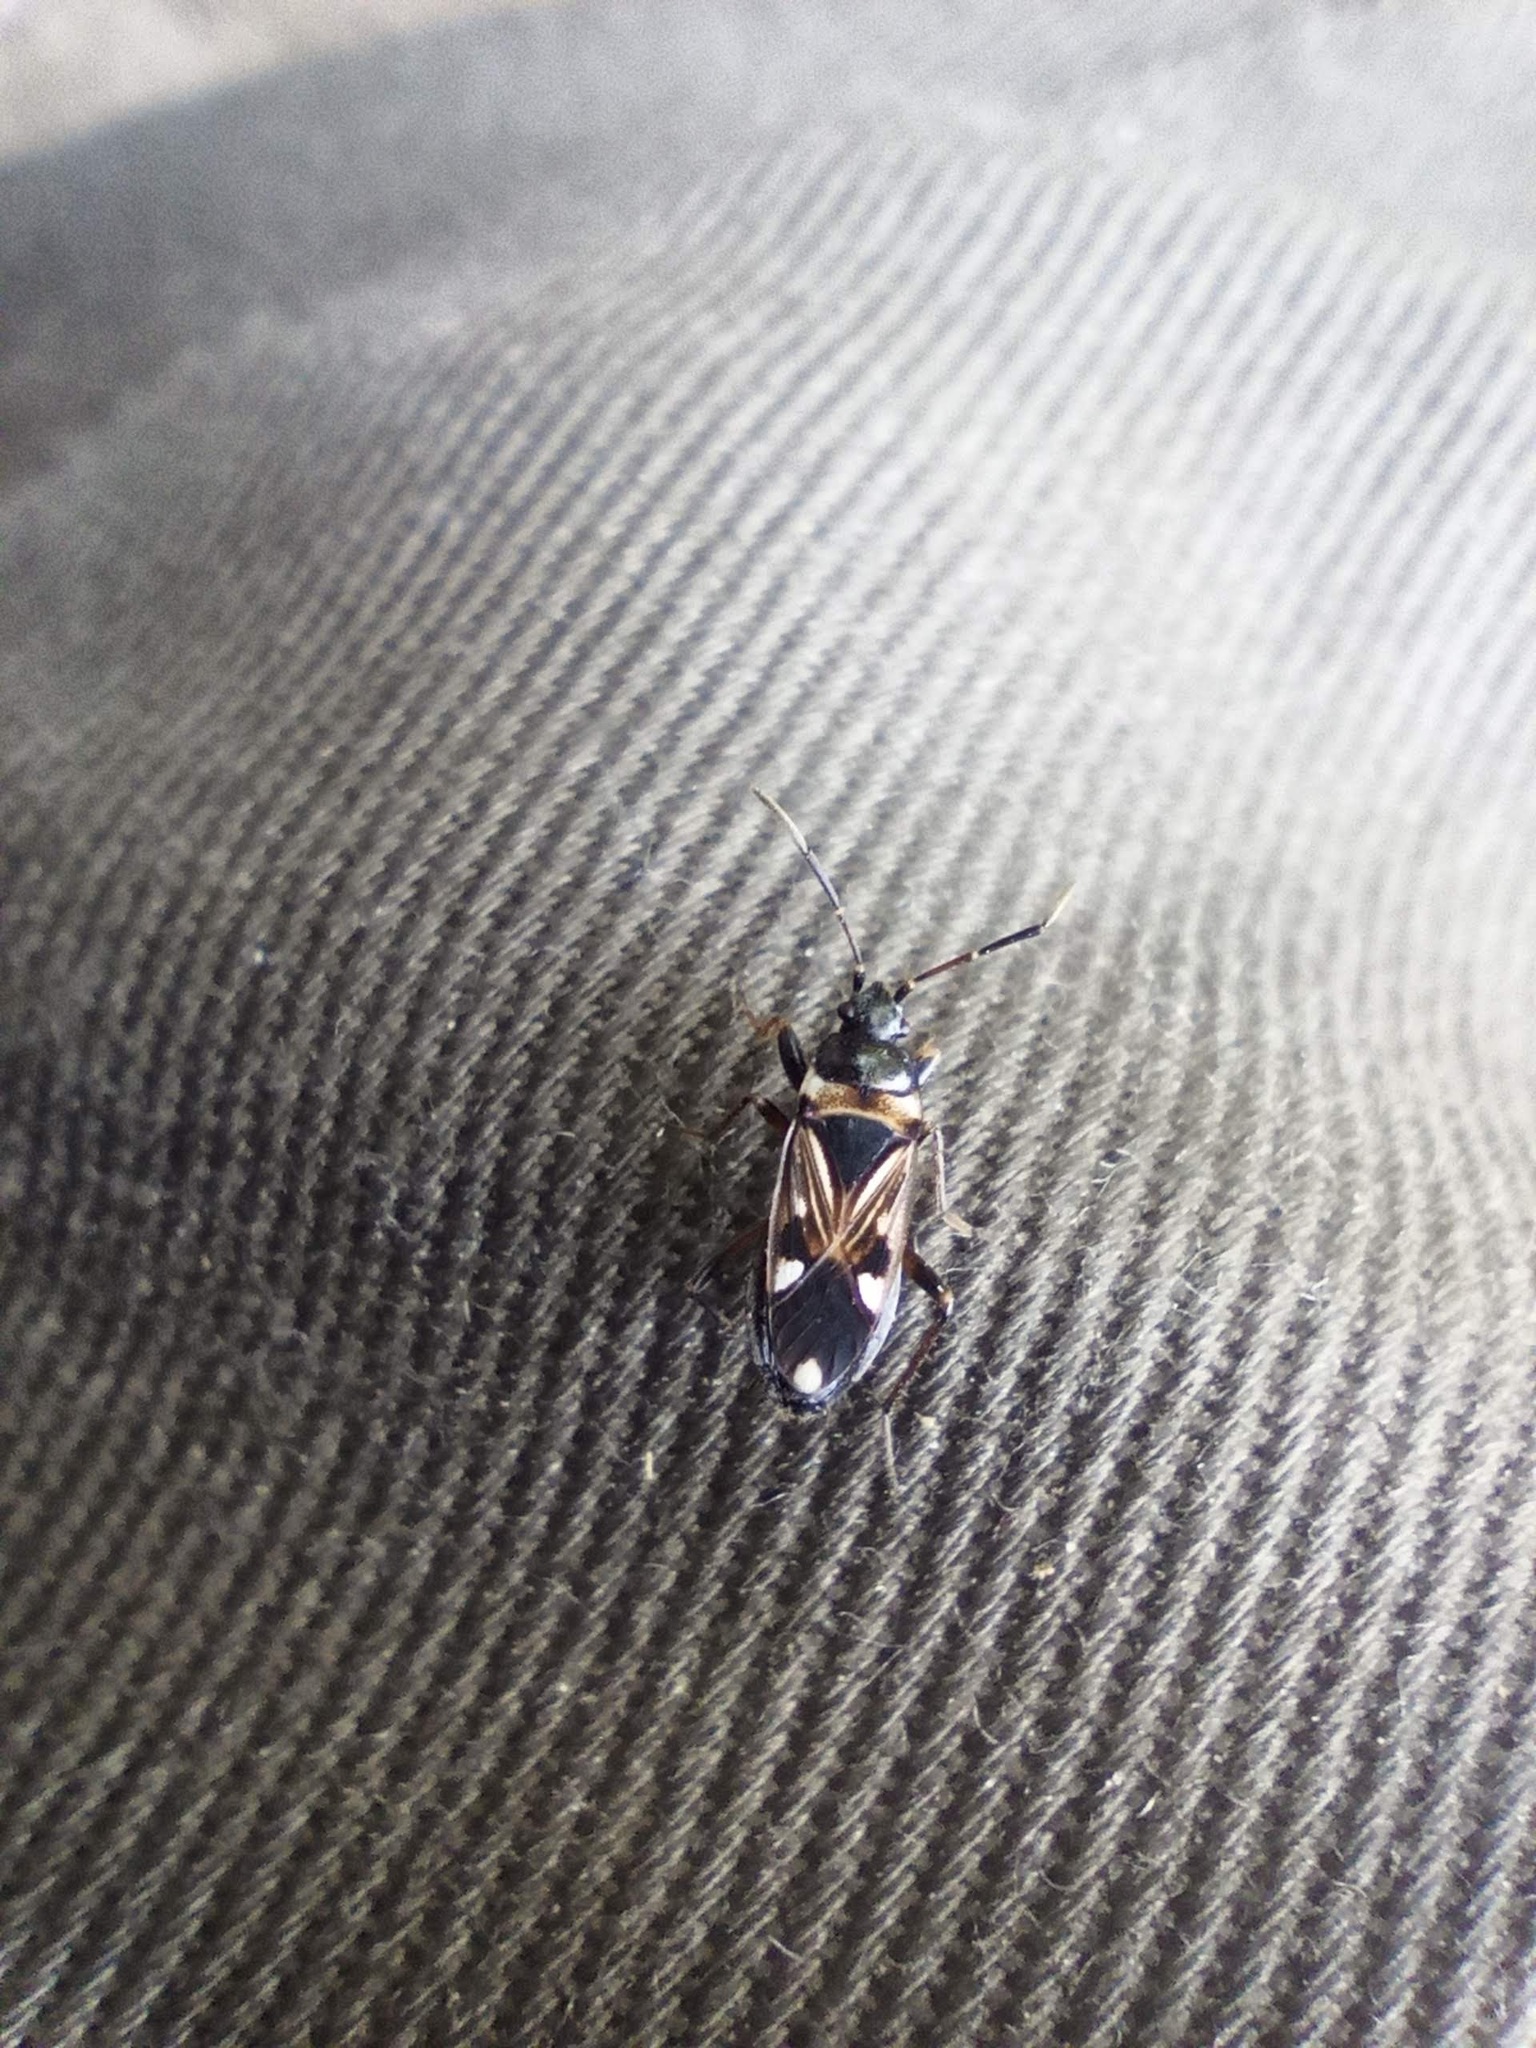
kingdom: Animalia
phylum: Arthropoda
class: Insecta
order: Hemiptera
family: Rhyparochromidae
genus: Raglius
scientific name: Raglius alboacuminatus
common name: Dirt-colored seed bug
